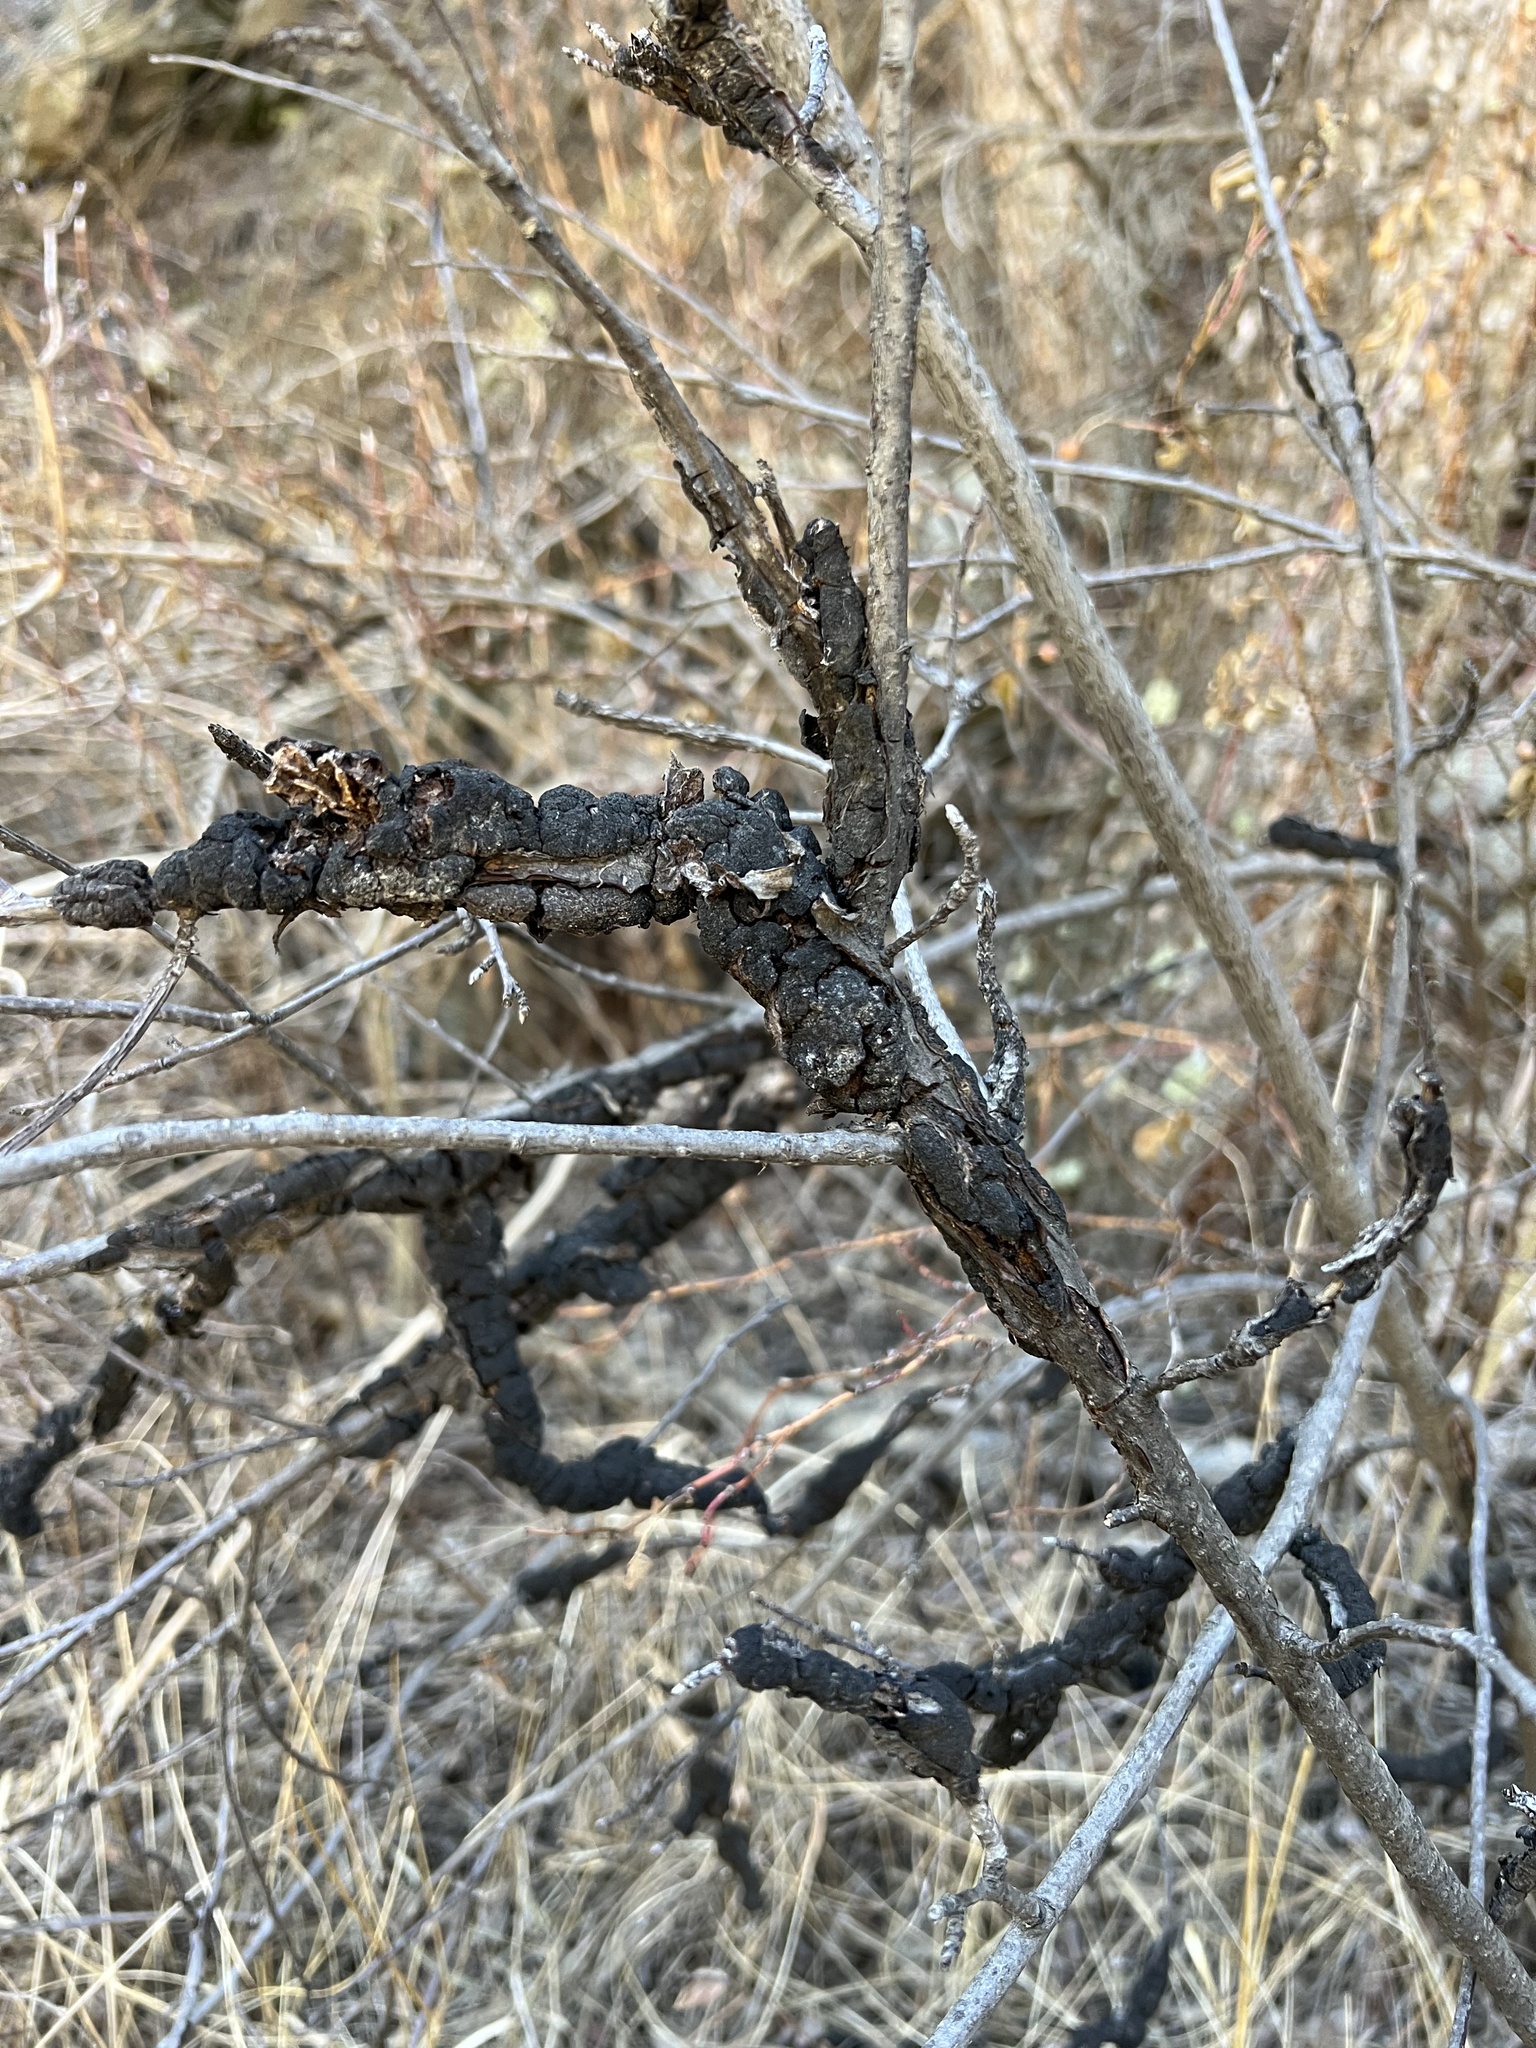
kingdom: Fungi
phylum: Ascomycota
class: Dothideomycetes
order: Venturiales
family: Venturiaceae
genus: Apiosporina
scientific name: Apiosporina morbosa
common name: Black knot
